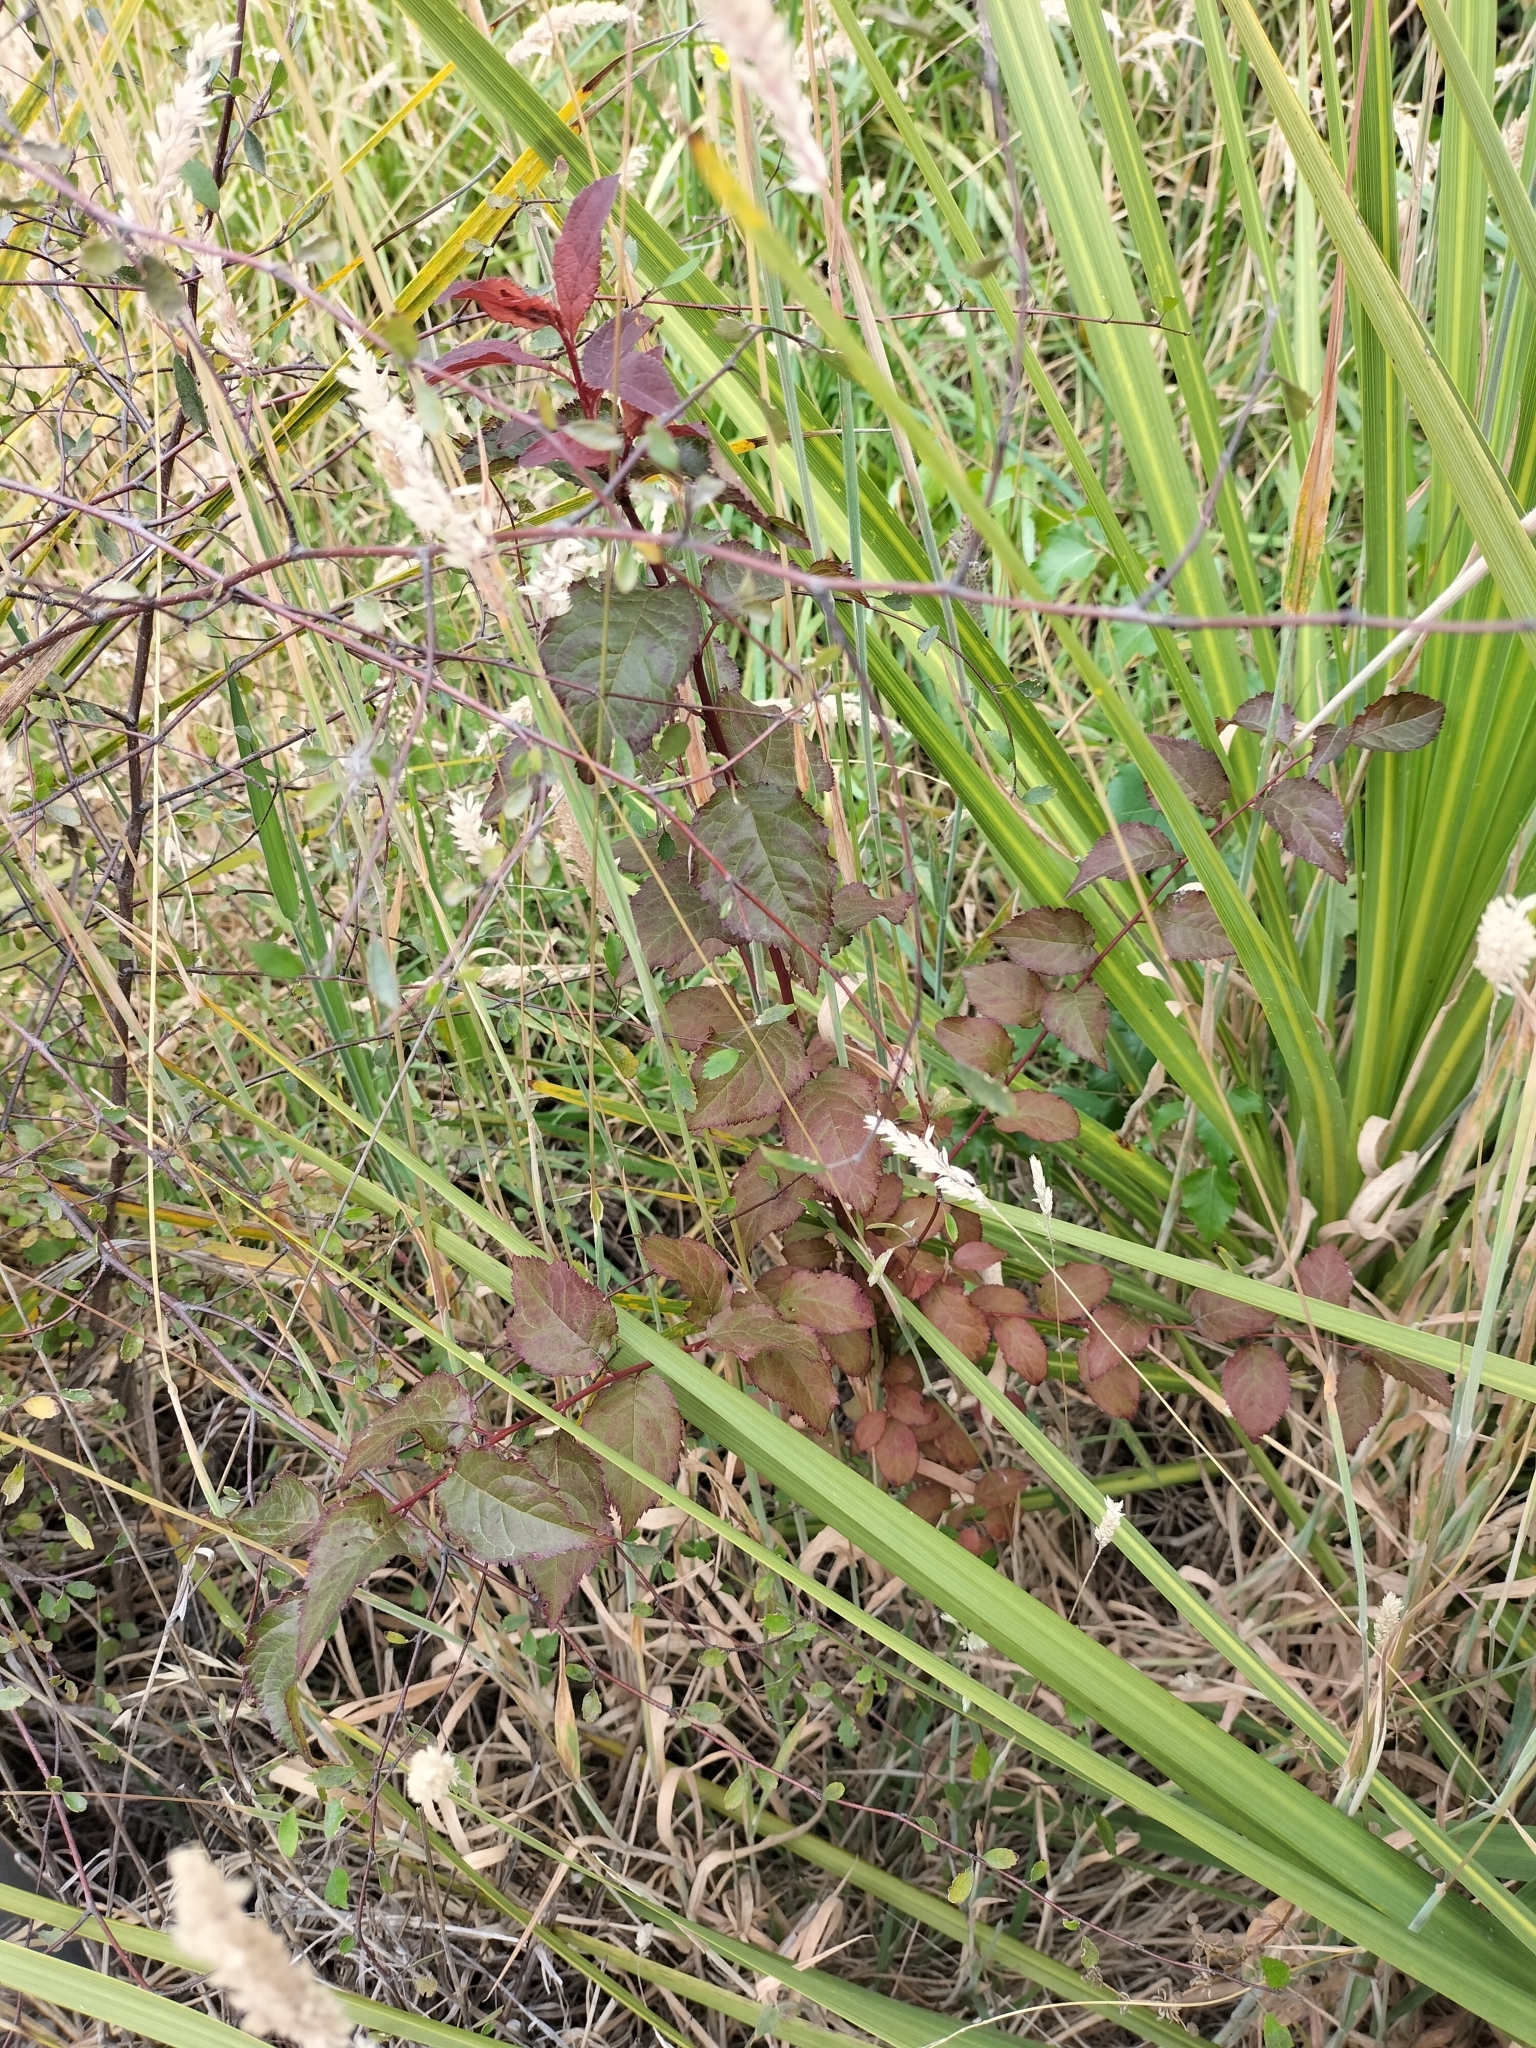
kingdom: Plantae
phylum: Tracheophyta
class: Magnoliopsida
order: Rosales
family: Rosaceae
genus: Prunus
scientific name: Prunus cerasifera
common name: Cherry plum
